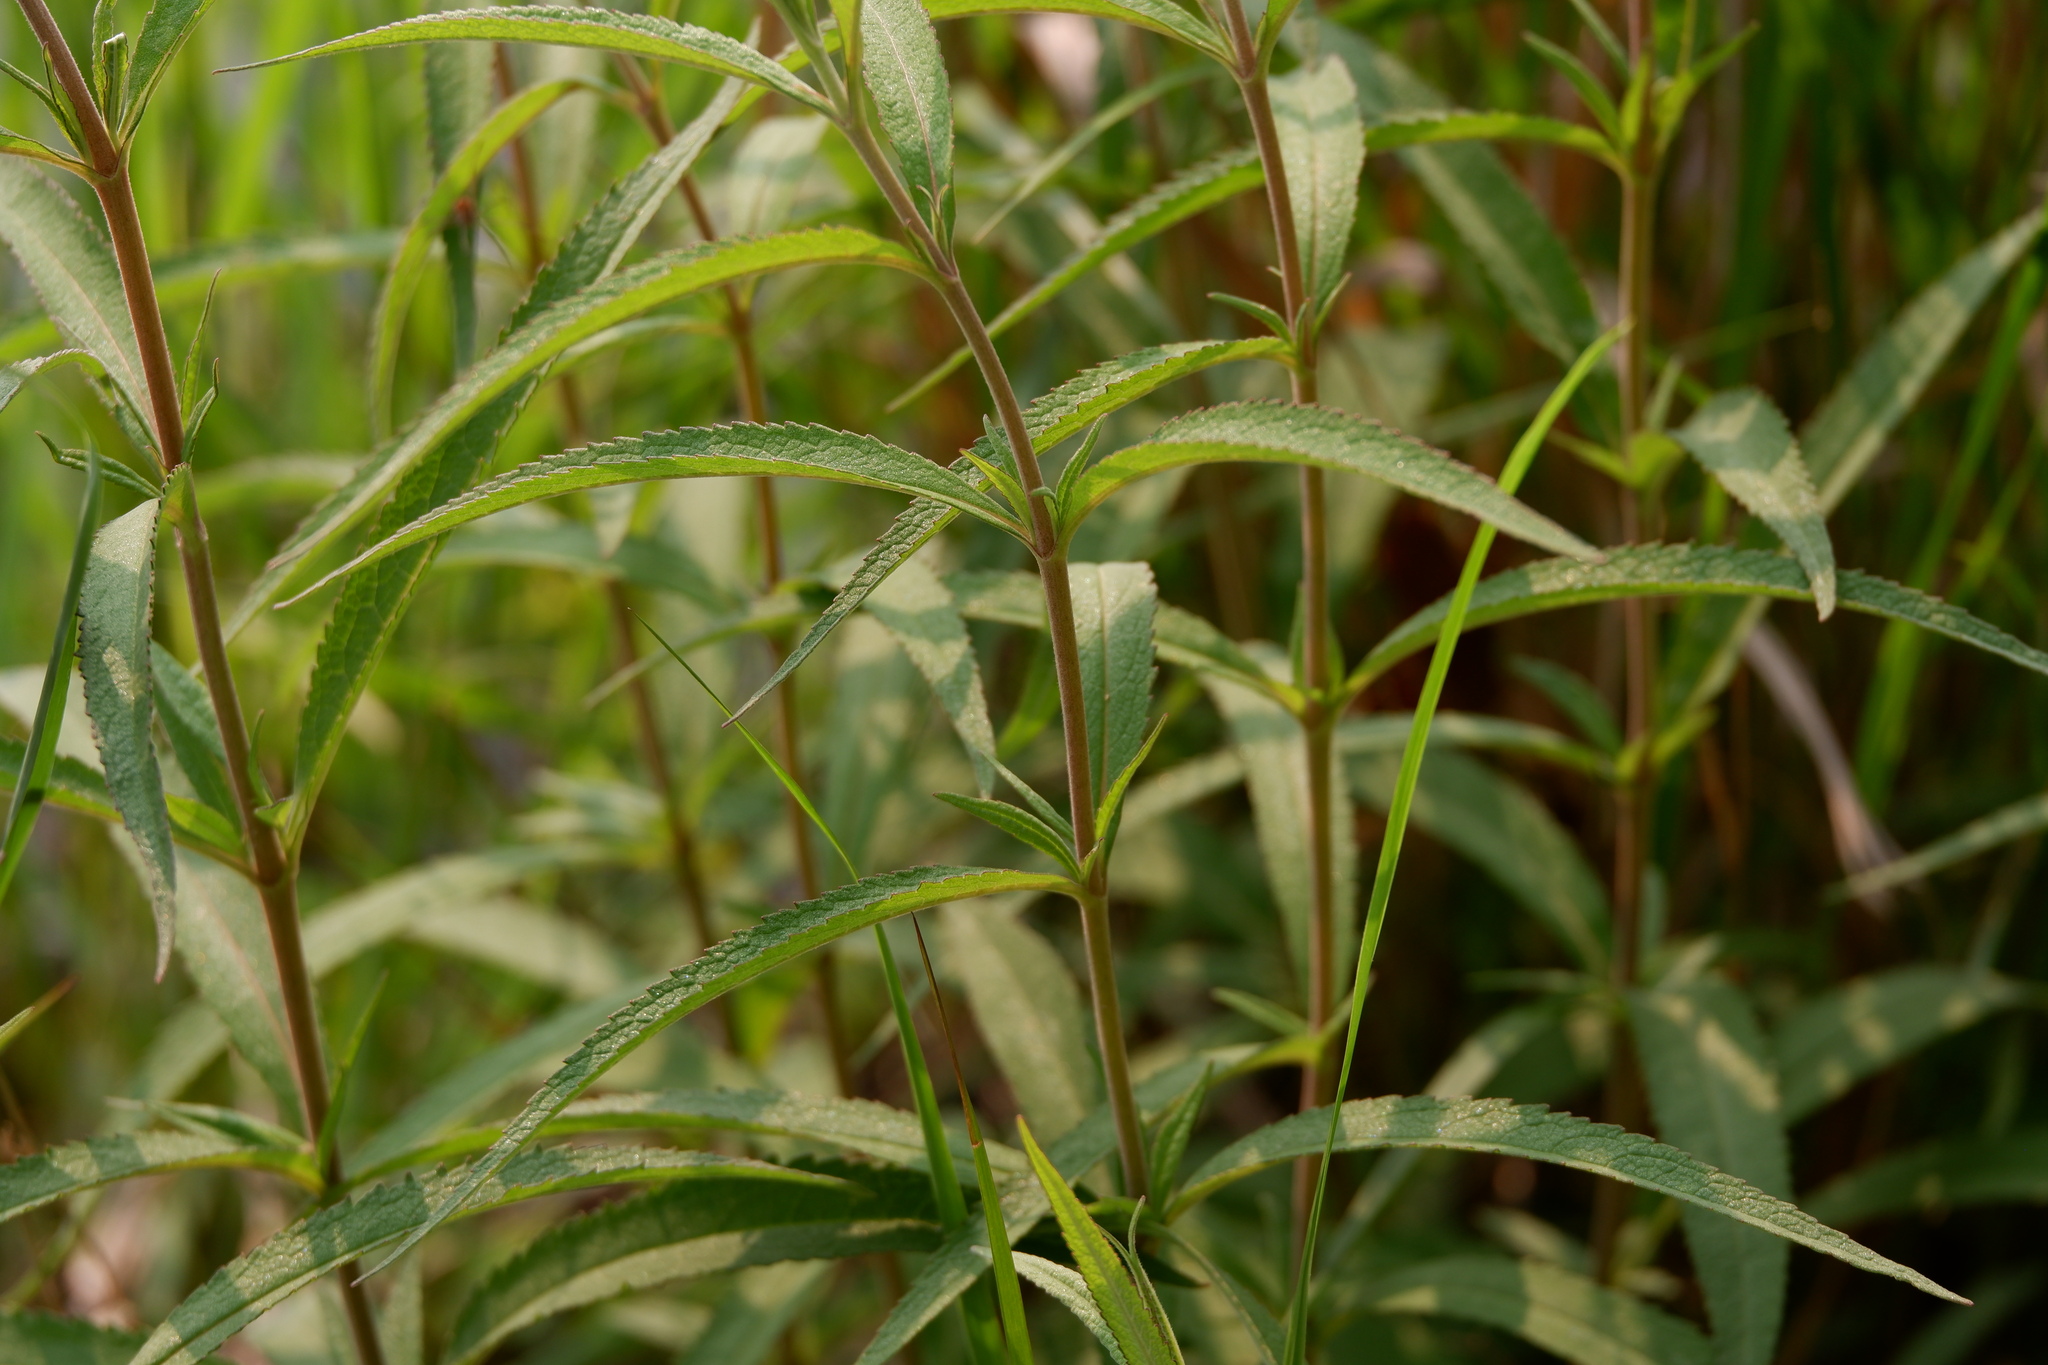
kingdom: Plantae
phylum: Tracheophyta
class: Magnoliopsida
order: Asterales
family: Asteraceae
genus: Eupatorium
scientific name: Eupatorium resinosum
